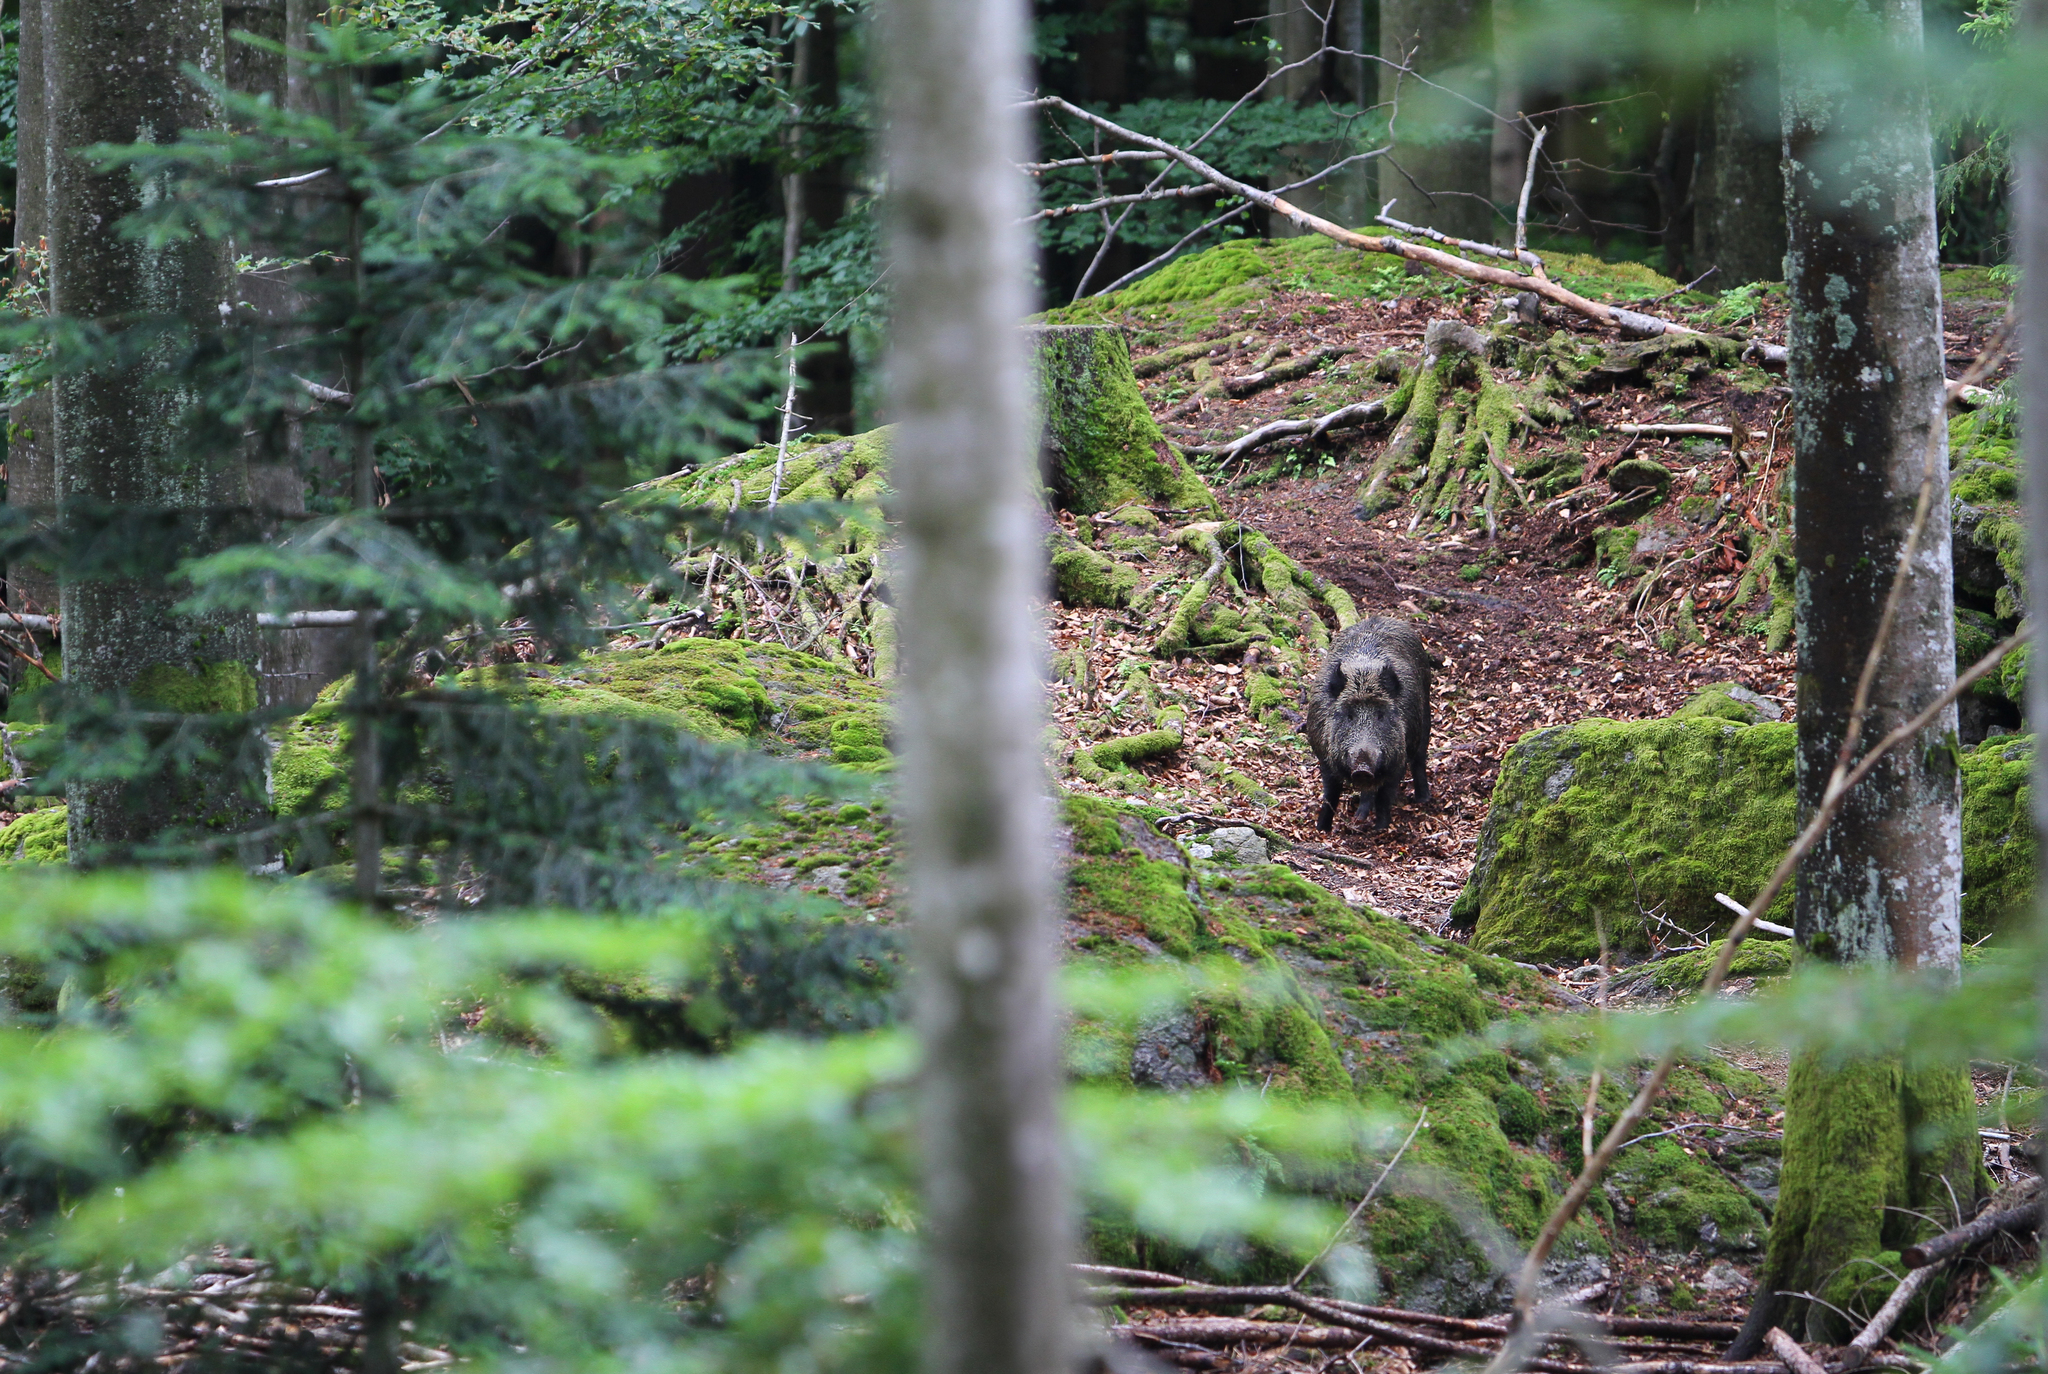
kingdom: Animalia
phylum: Chordata
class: Mammalia
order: Artiodactyla
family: Suidae
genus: Sus
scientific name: Sus scrofa
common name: Wild boar
